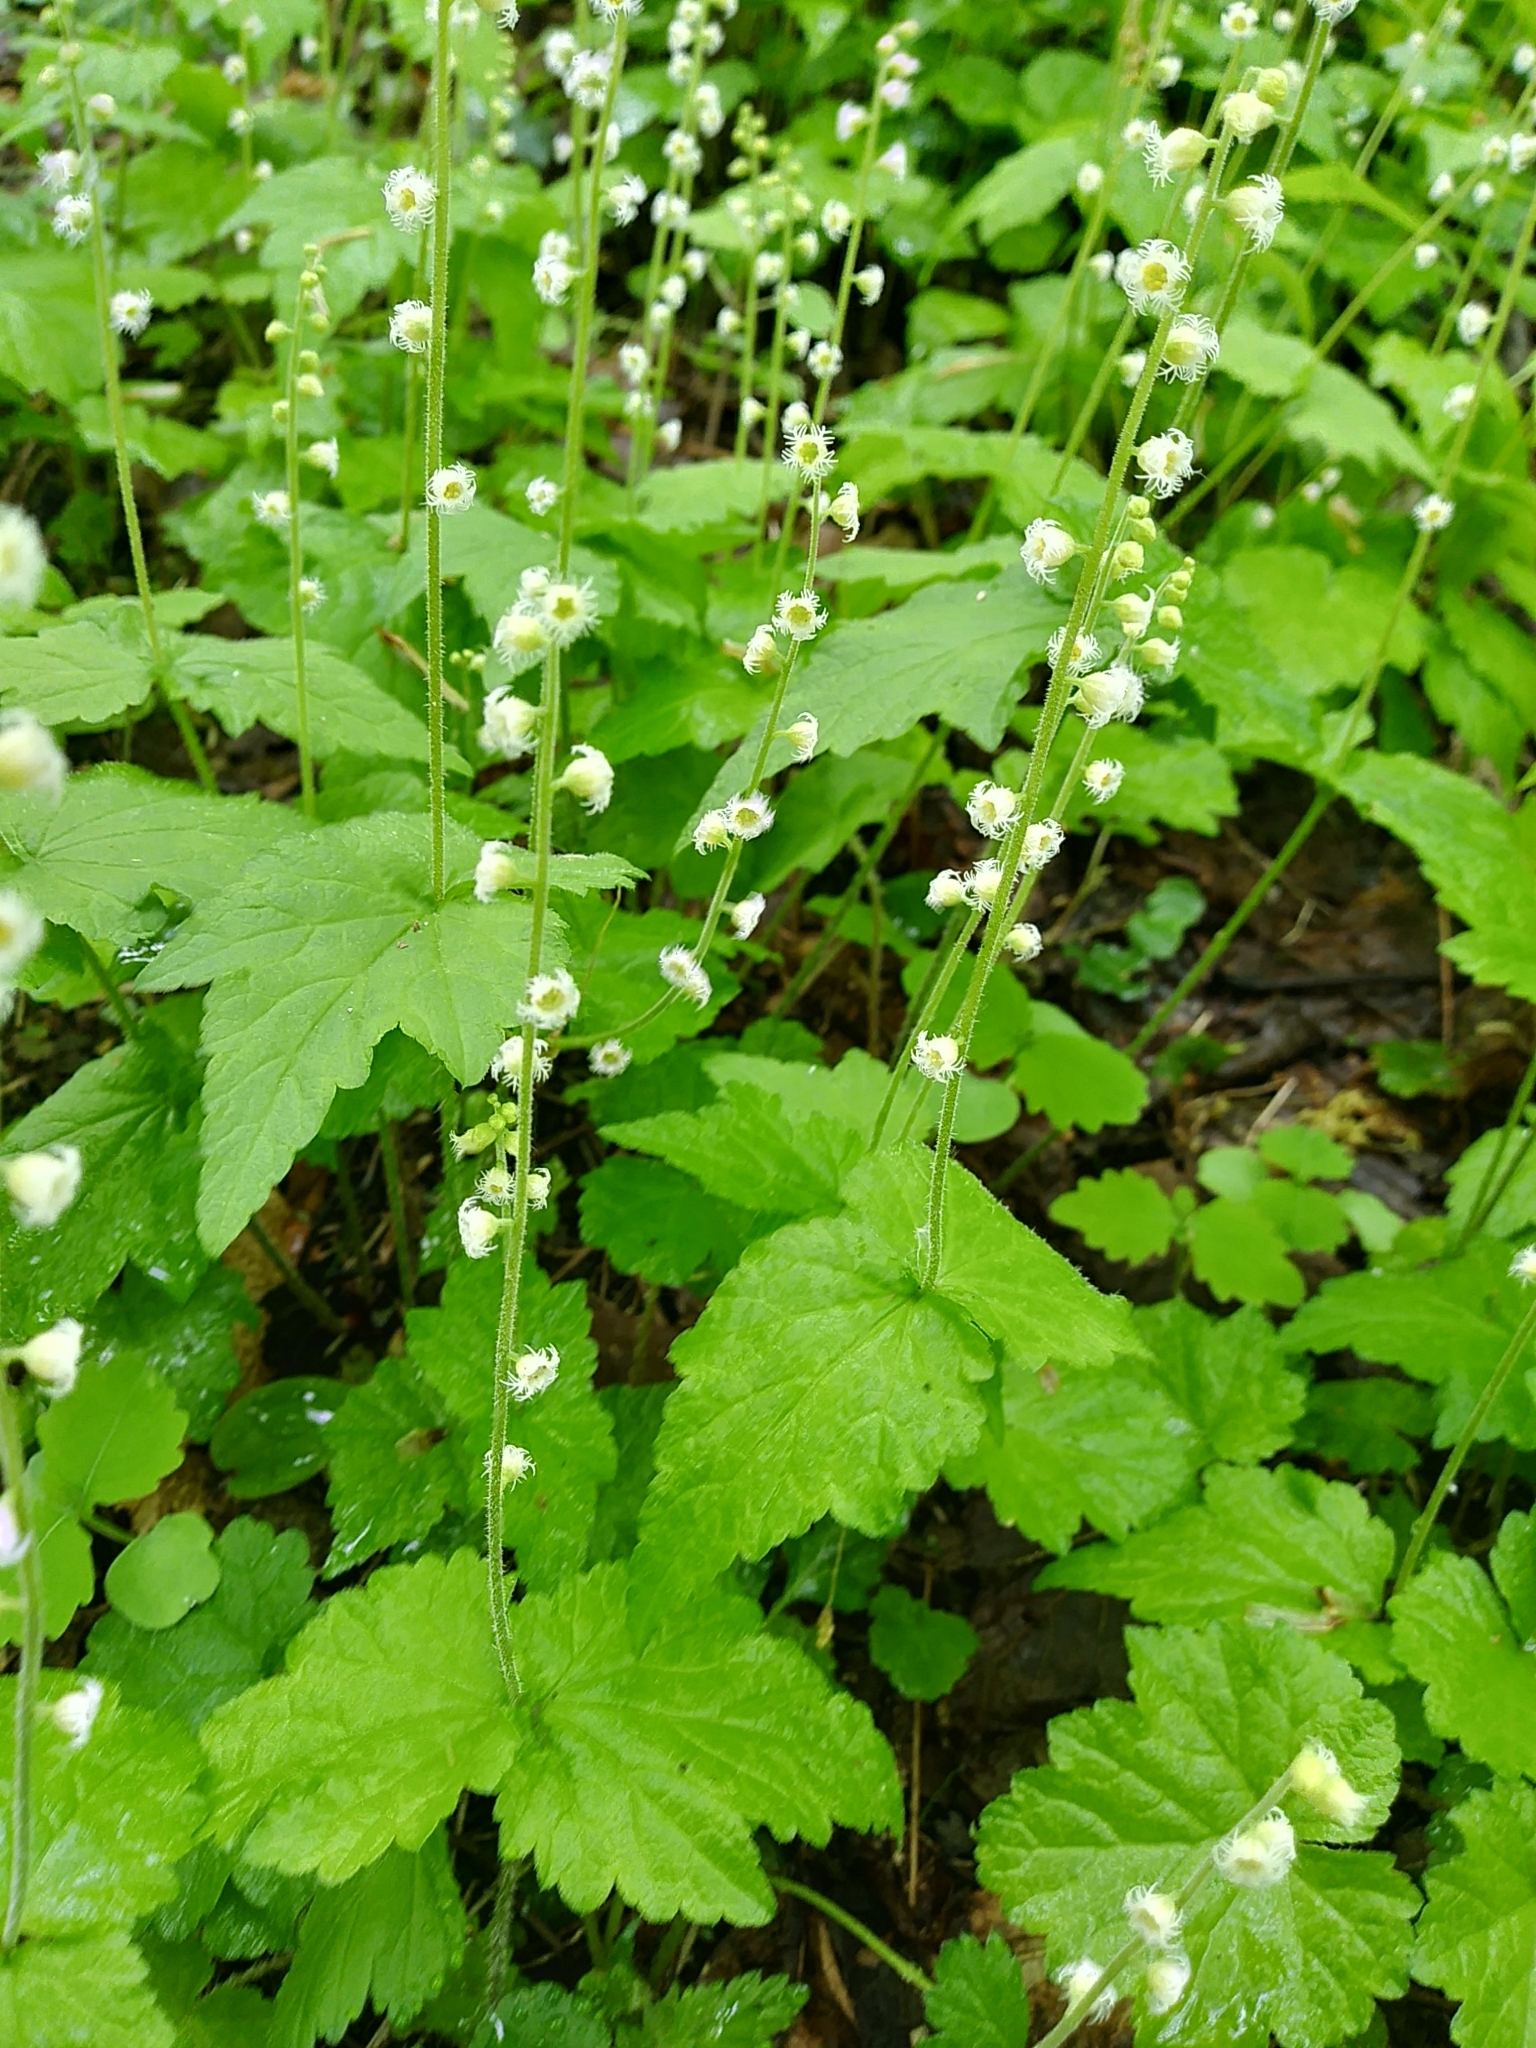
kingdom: Plantae
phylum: Tracheophyta
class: Magnoliopsida
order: Saxifragales
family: Saxifragaceae
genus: Mitella
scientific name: Mitella diphylla
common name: Coolwort
